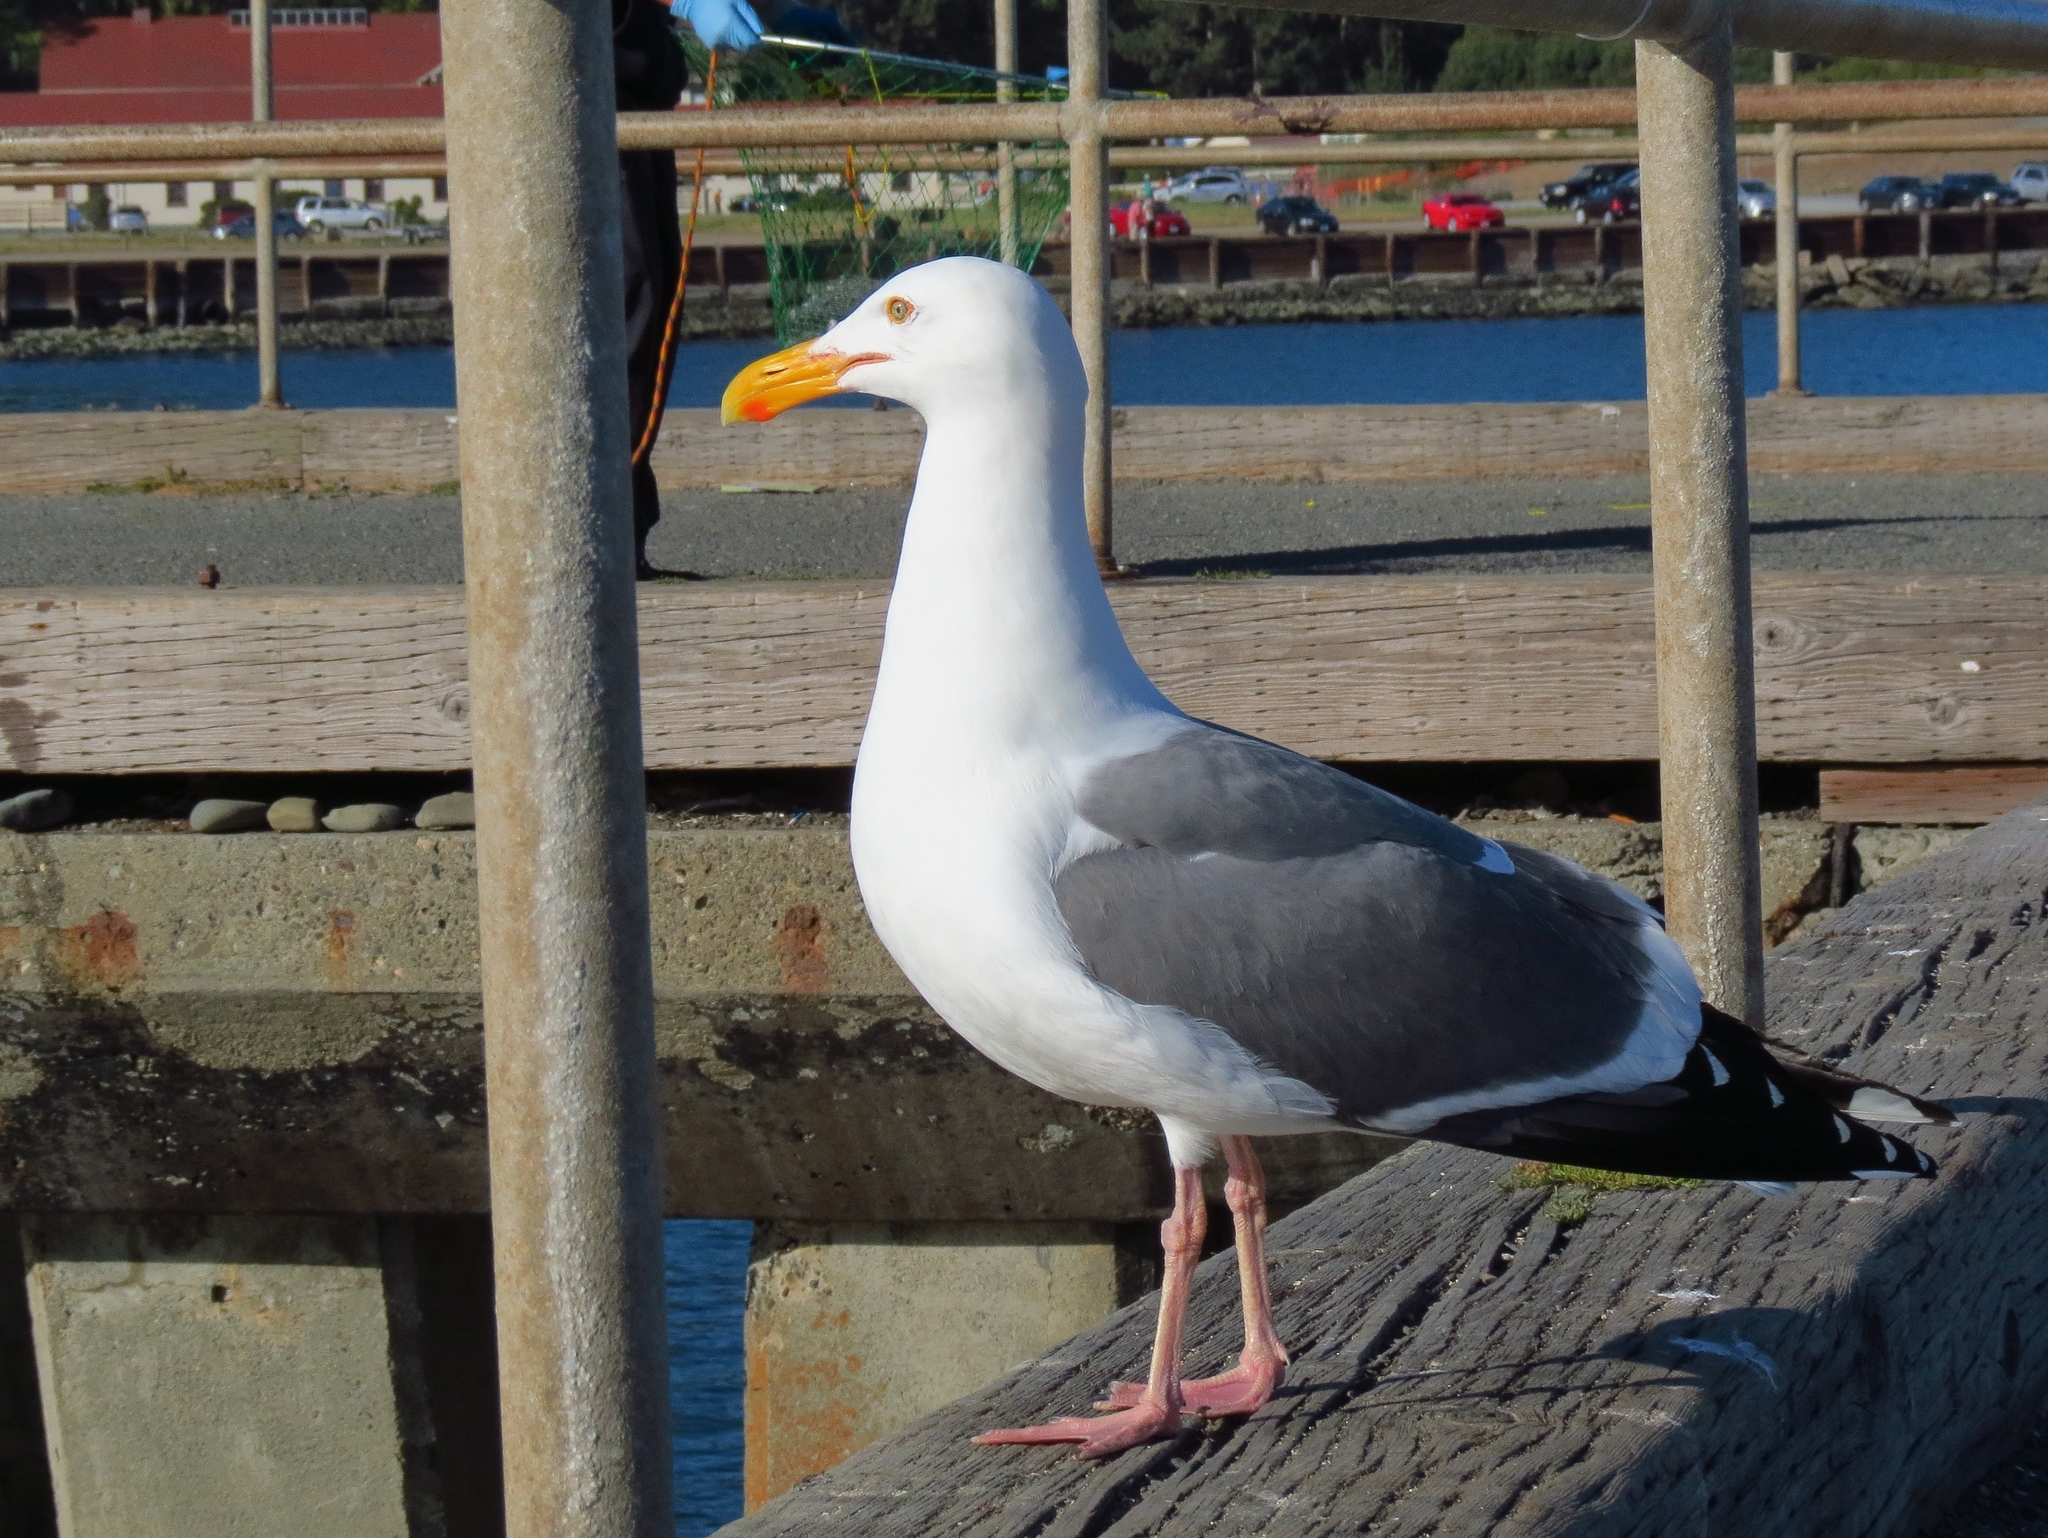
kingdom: Animalia
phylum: Chordata
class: Aves
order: Charadriiformes
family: Laridae
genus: Larus
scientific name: Larus occidentalis
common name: Western gull
